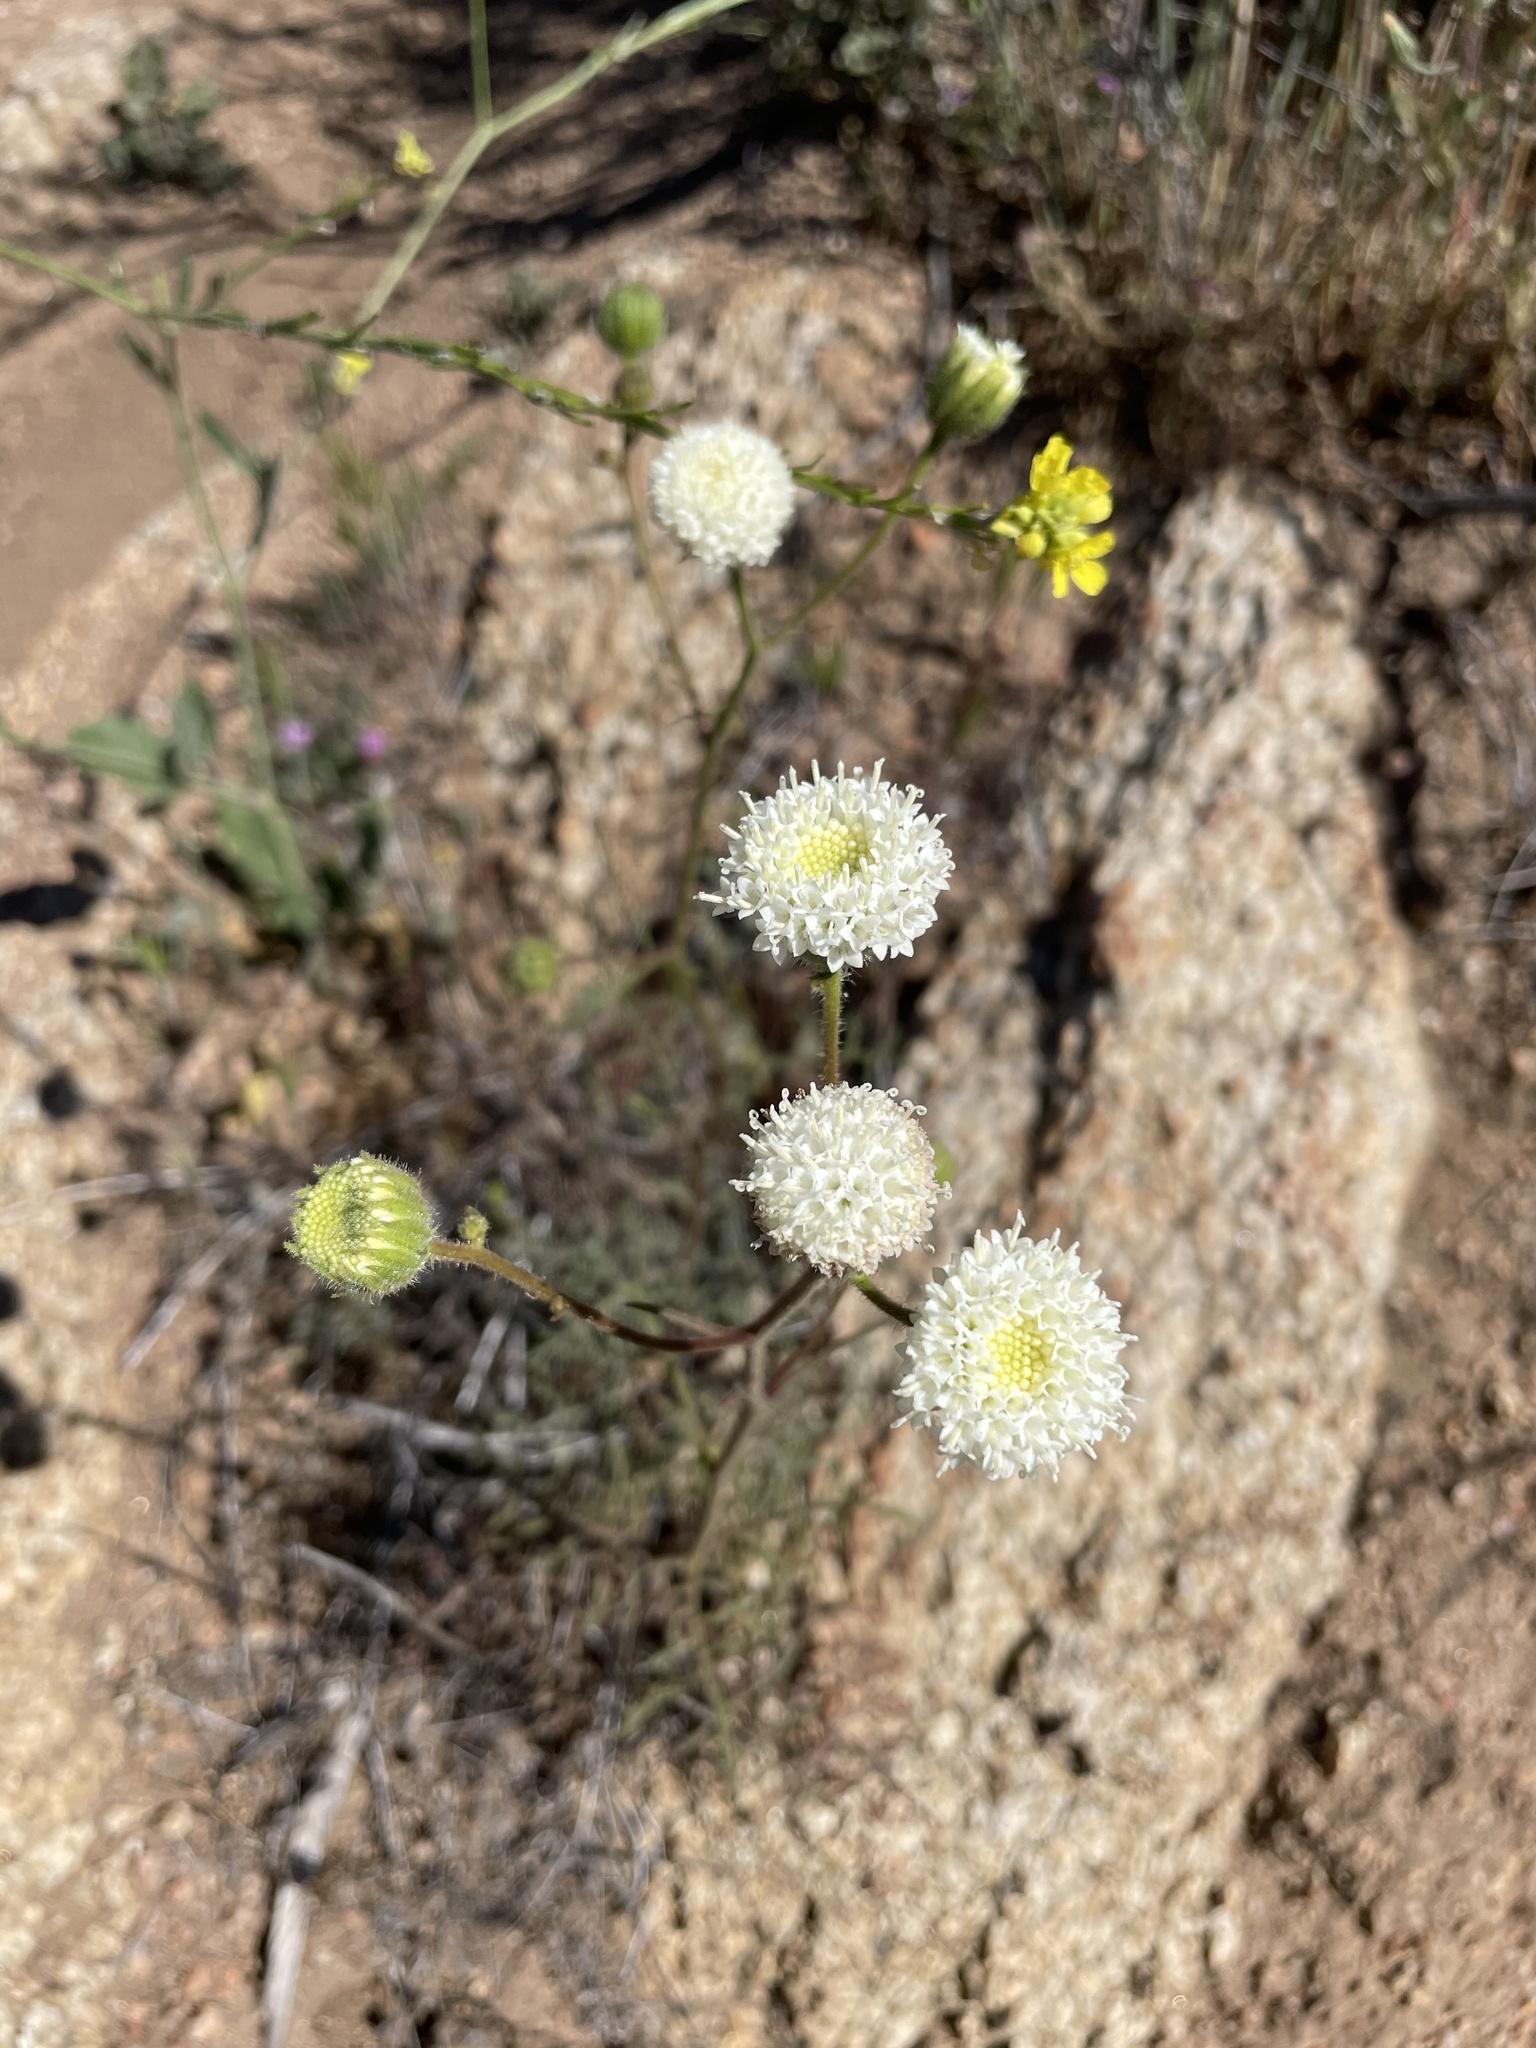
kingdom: Plantae
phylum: Tracheophyta
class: Magnoliopsida
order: Asterales
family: Asteraceae
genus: Chaenactis
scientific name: Chaenactis artemisiifolia
